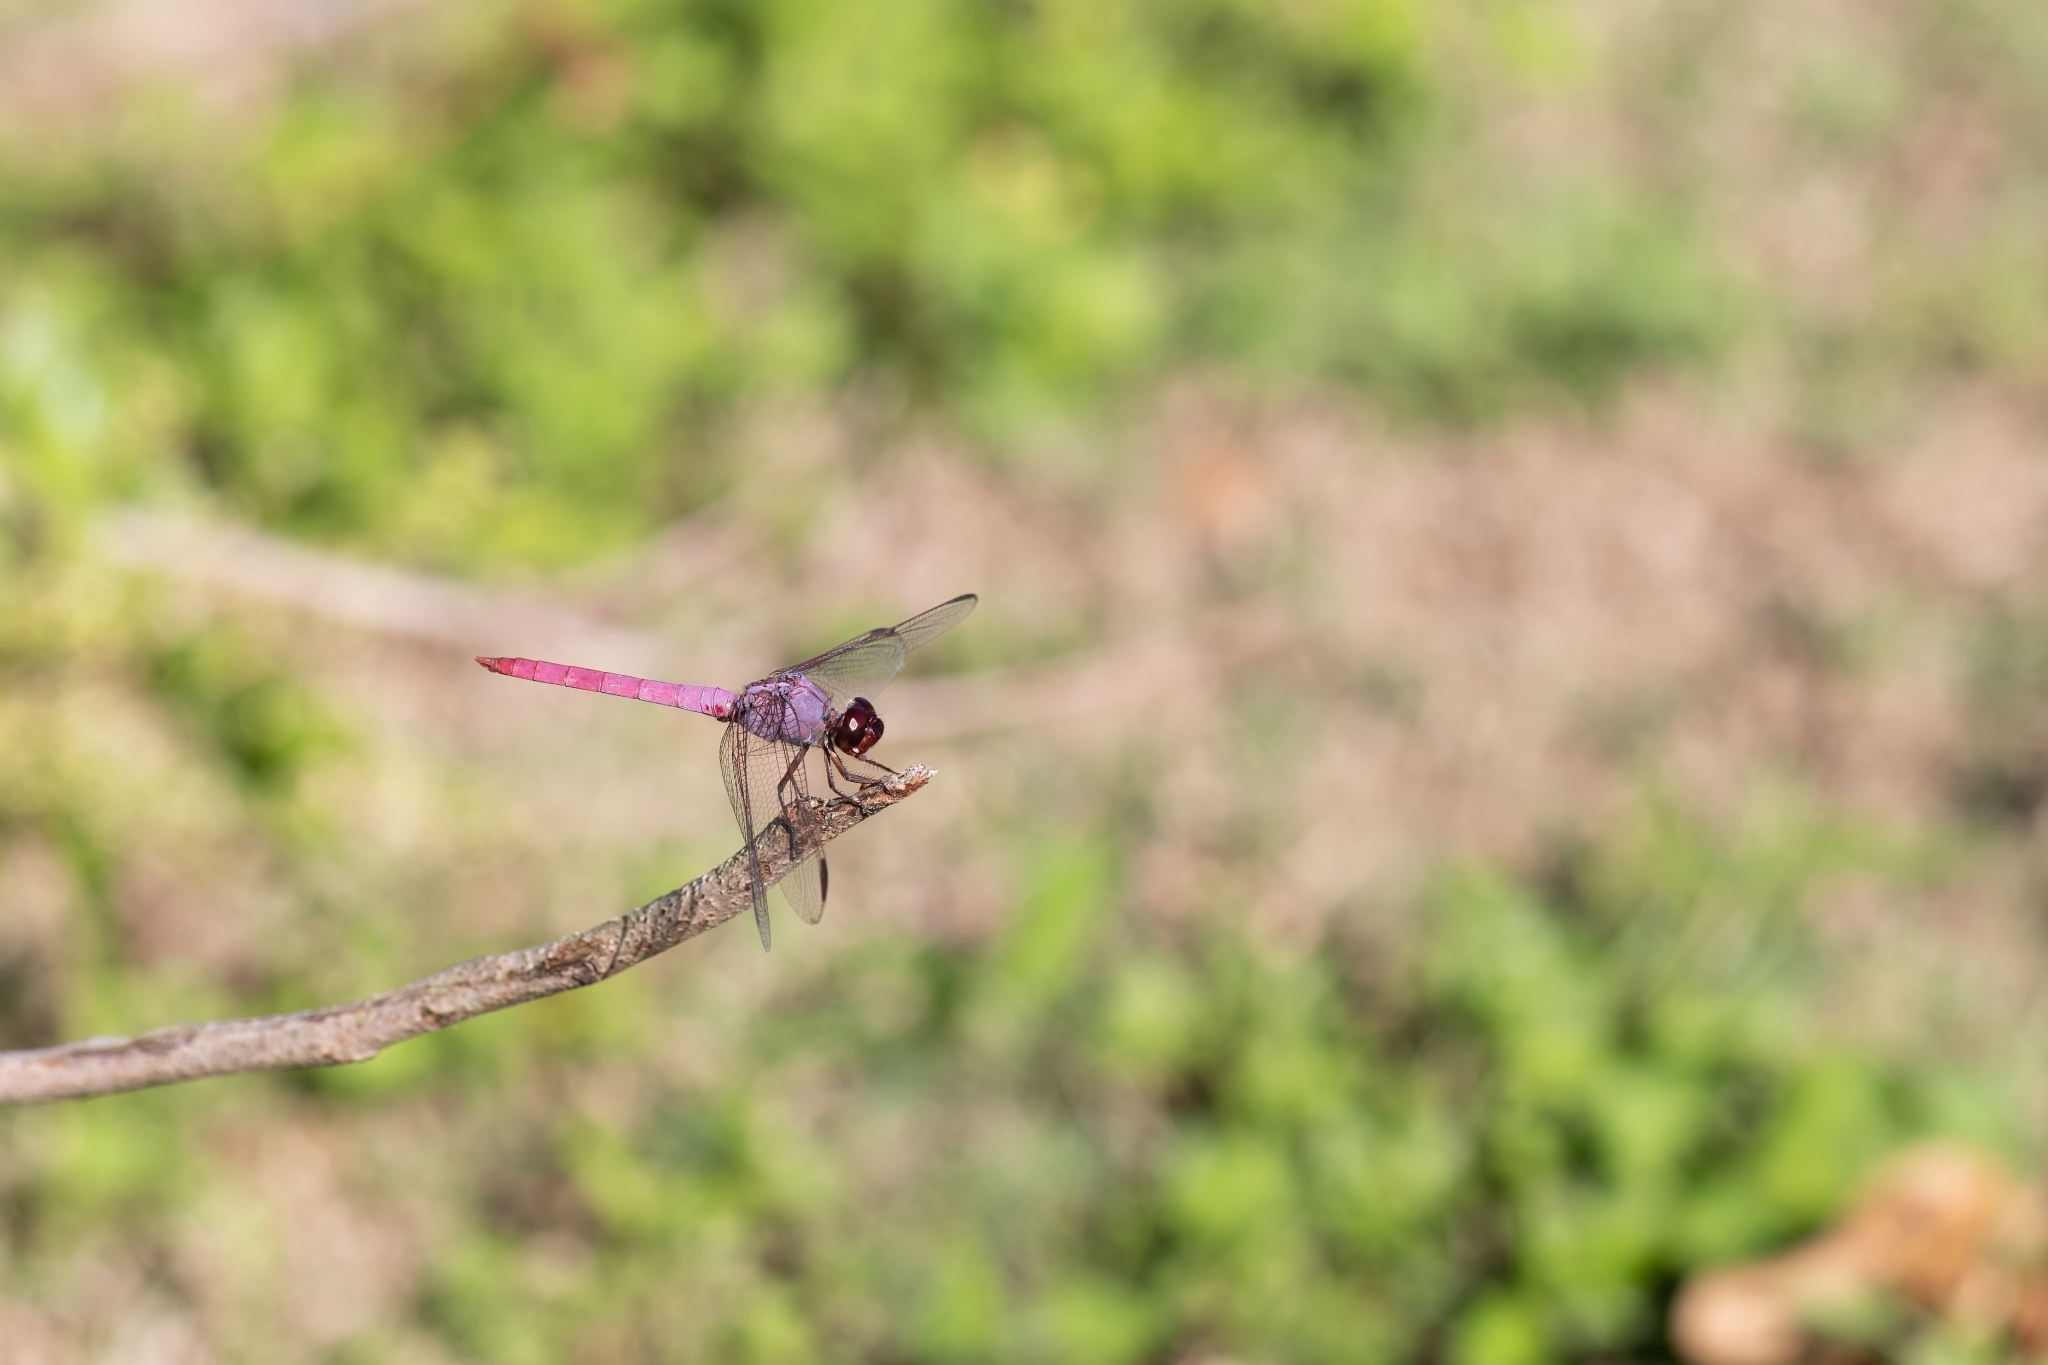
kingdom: Animalia
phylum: Arthropoda
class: Insecta
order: Odonata
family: Libellulidae
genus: Orthemis
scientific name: Orthemis ferruginea
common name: Roseate skimmer
